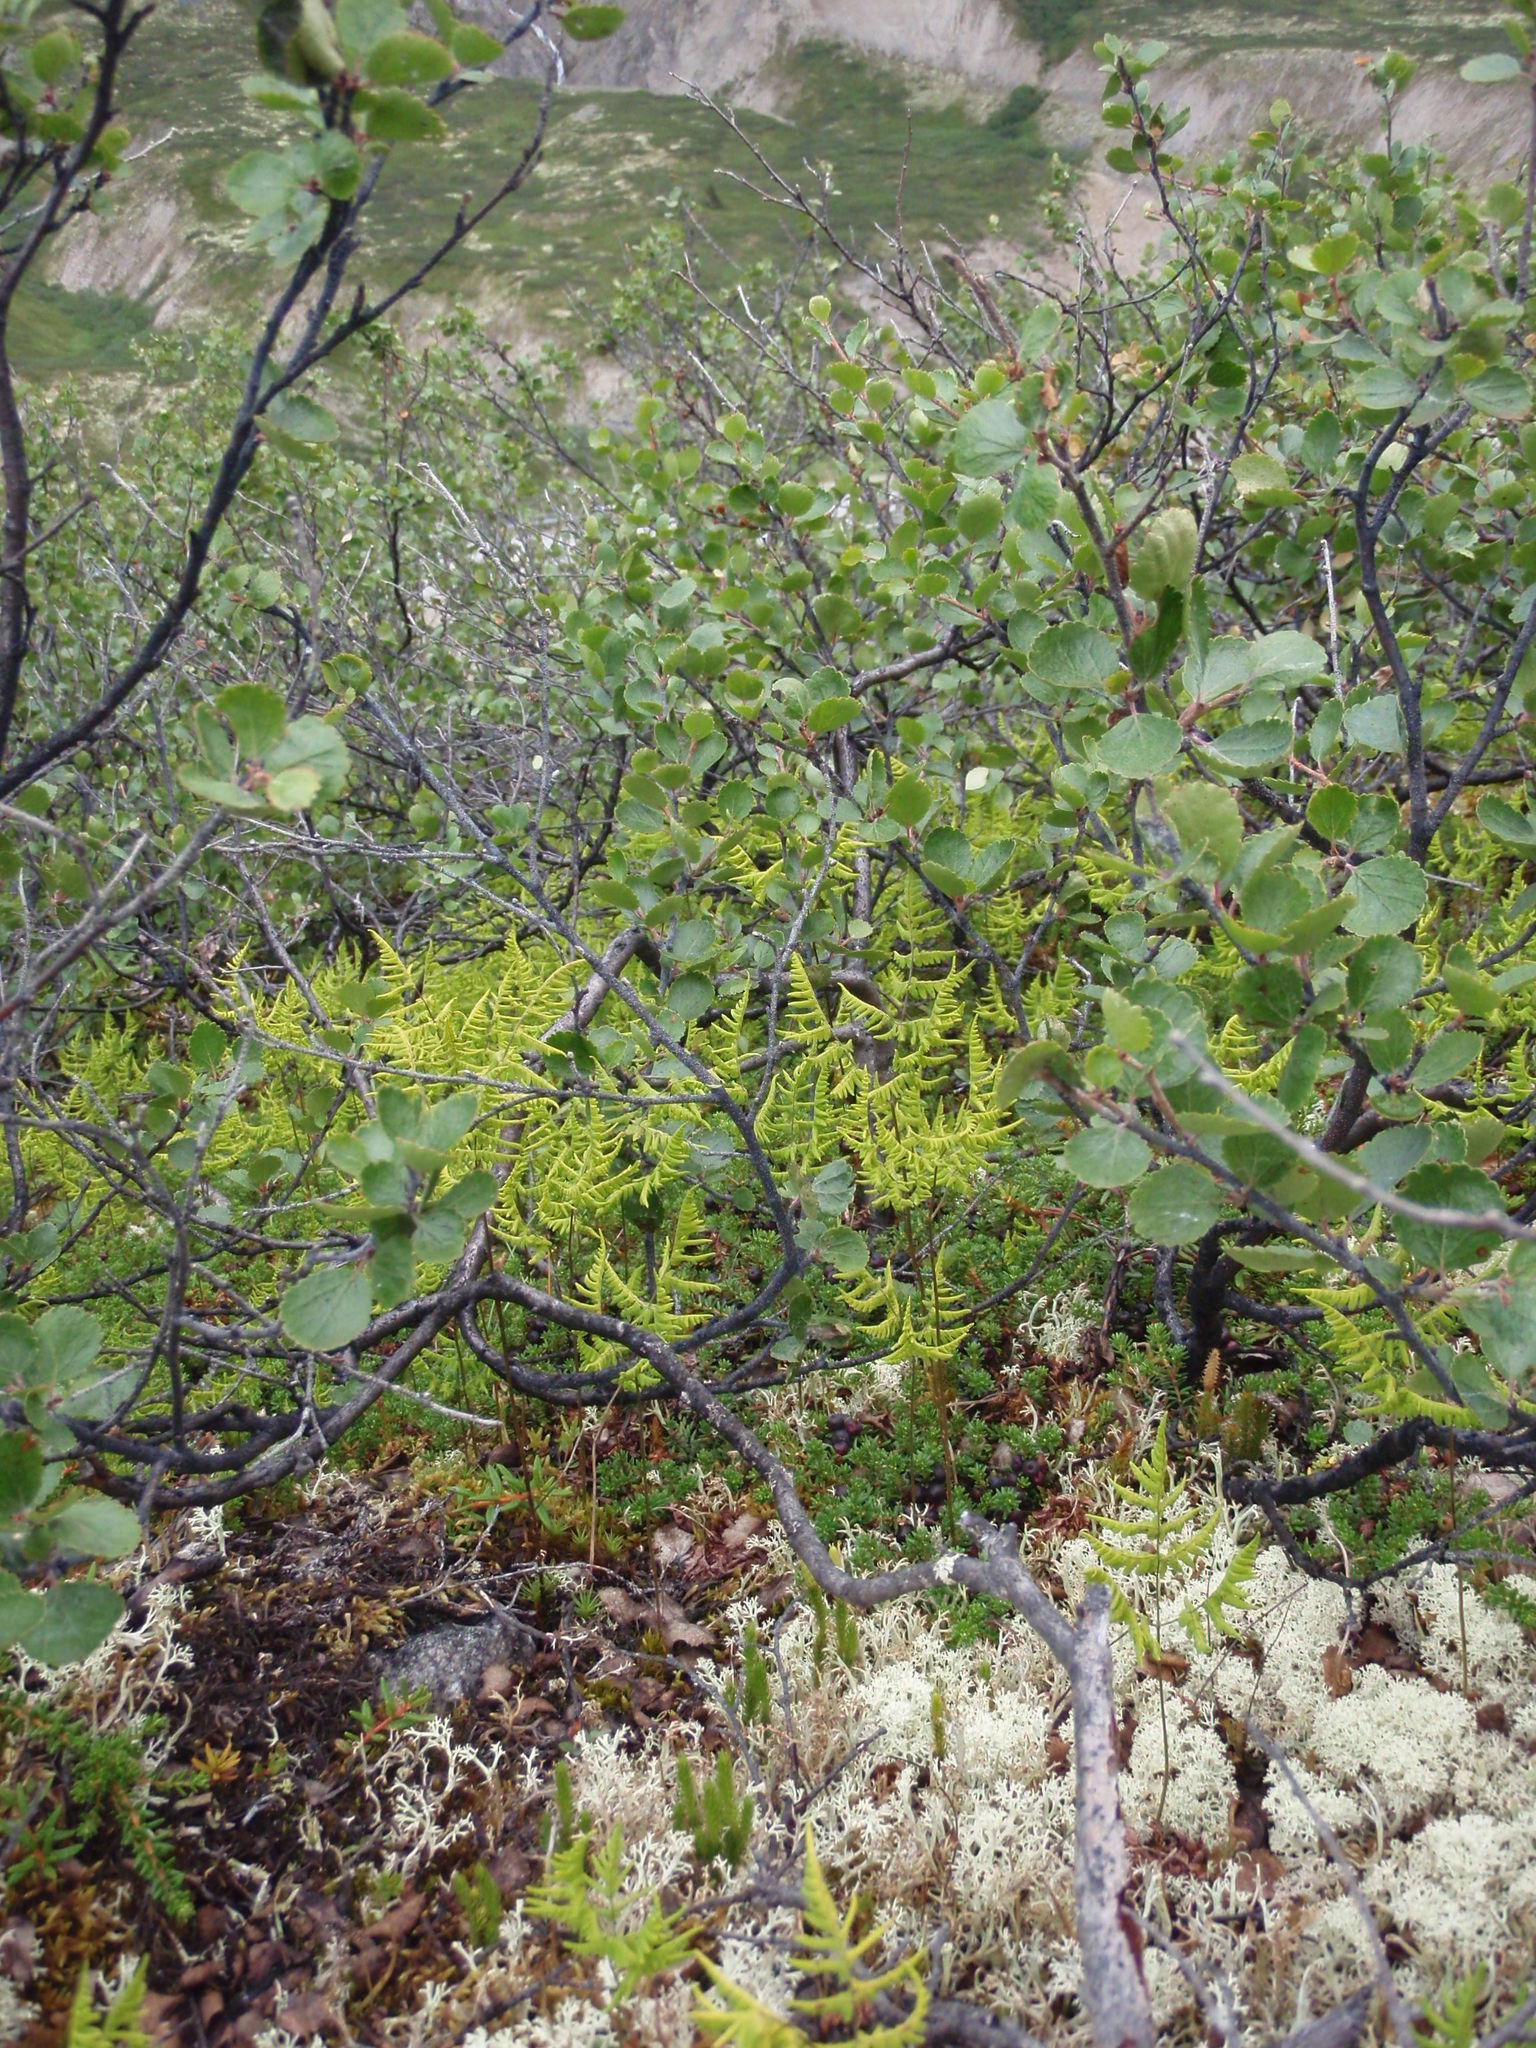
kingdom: Plantae
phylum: Tracheophyta
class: Magnoliopsida
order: Fagales
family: Betulaceae
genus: Betula
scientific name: Betula glandulosa
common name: Dwarf birch
